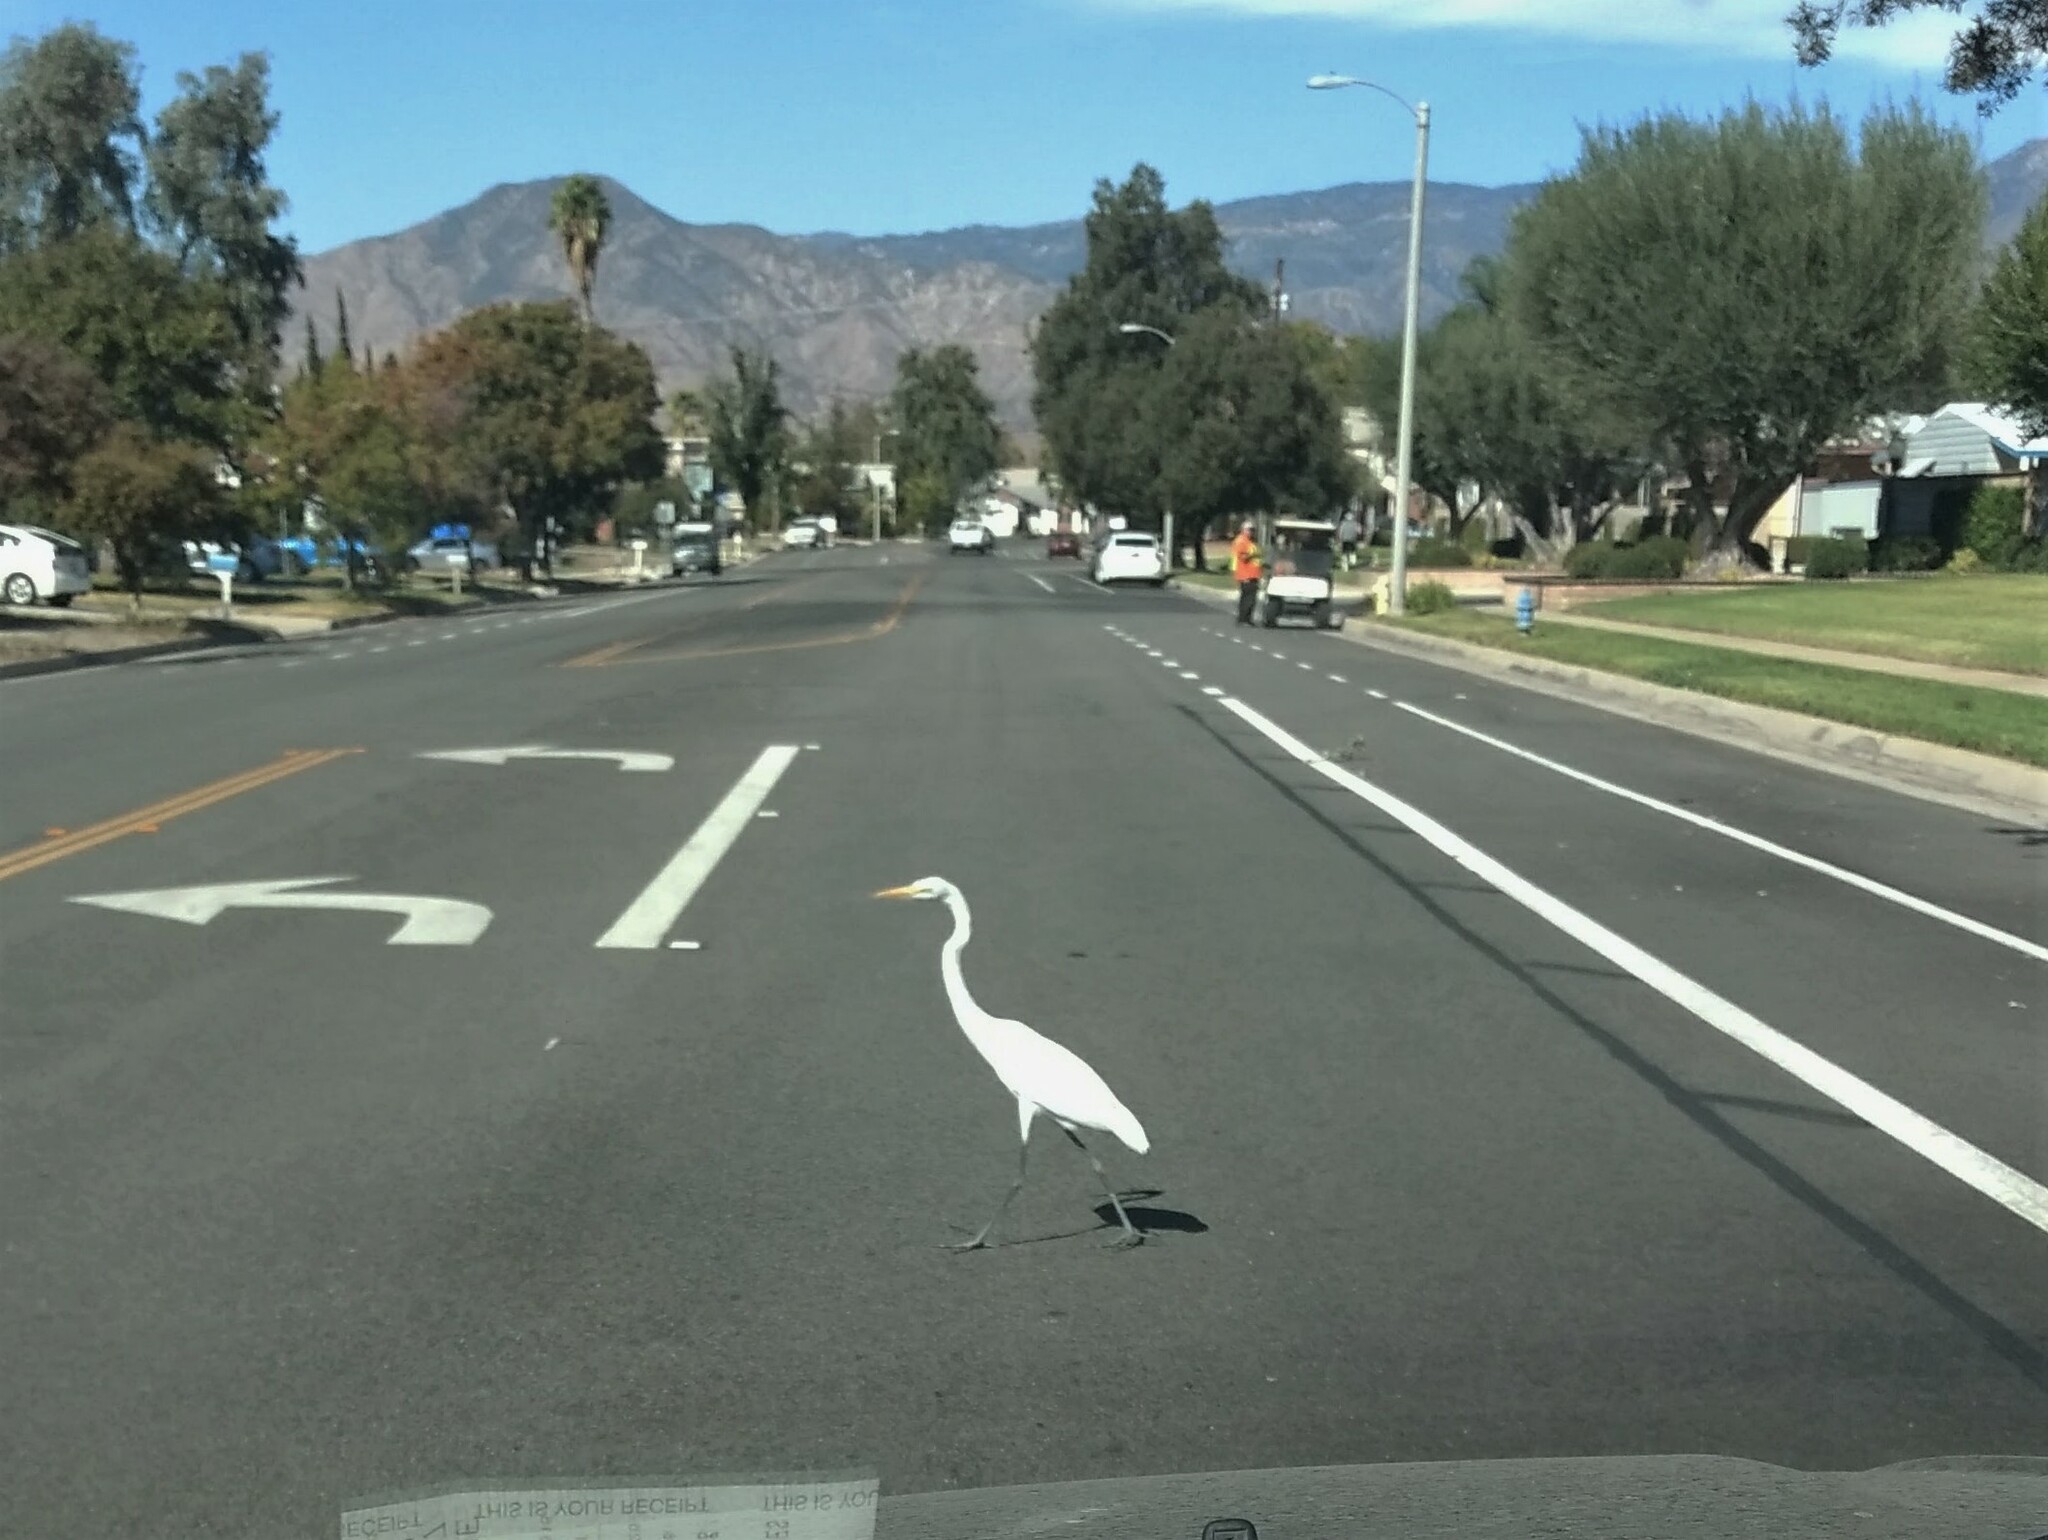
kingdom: Animalia
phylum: Chordata
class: Aves
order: Pelecaniformes
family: Ardeidae
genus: Ardea
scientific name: Ardea alba
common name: Great egret
